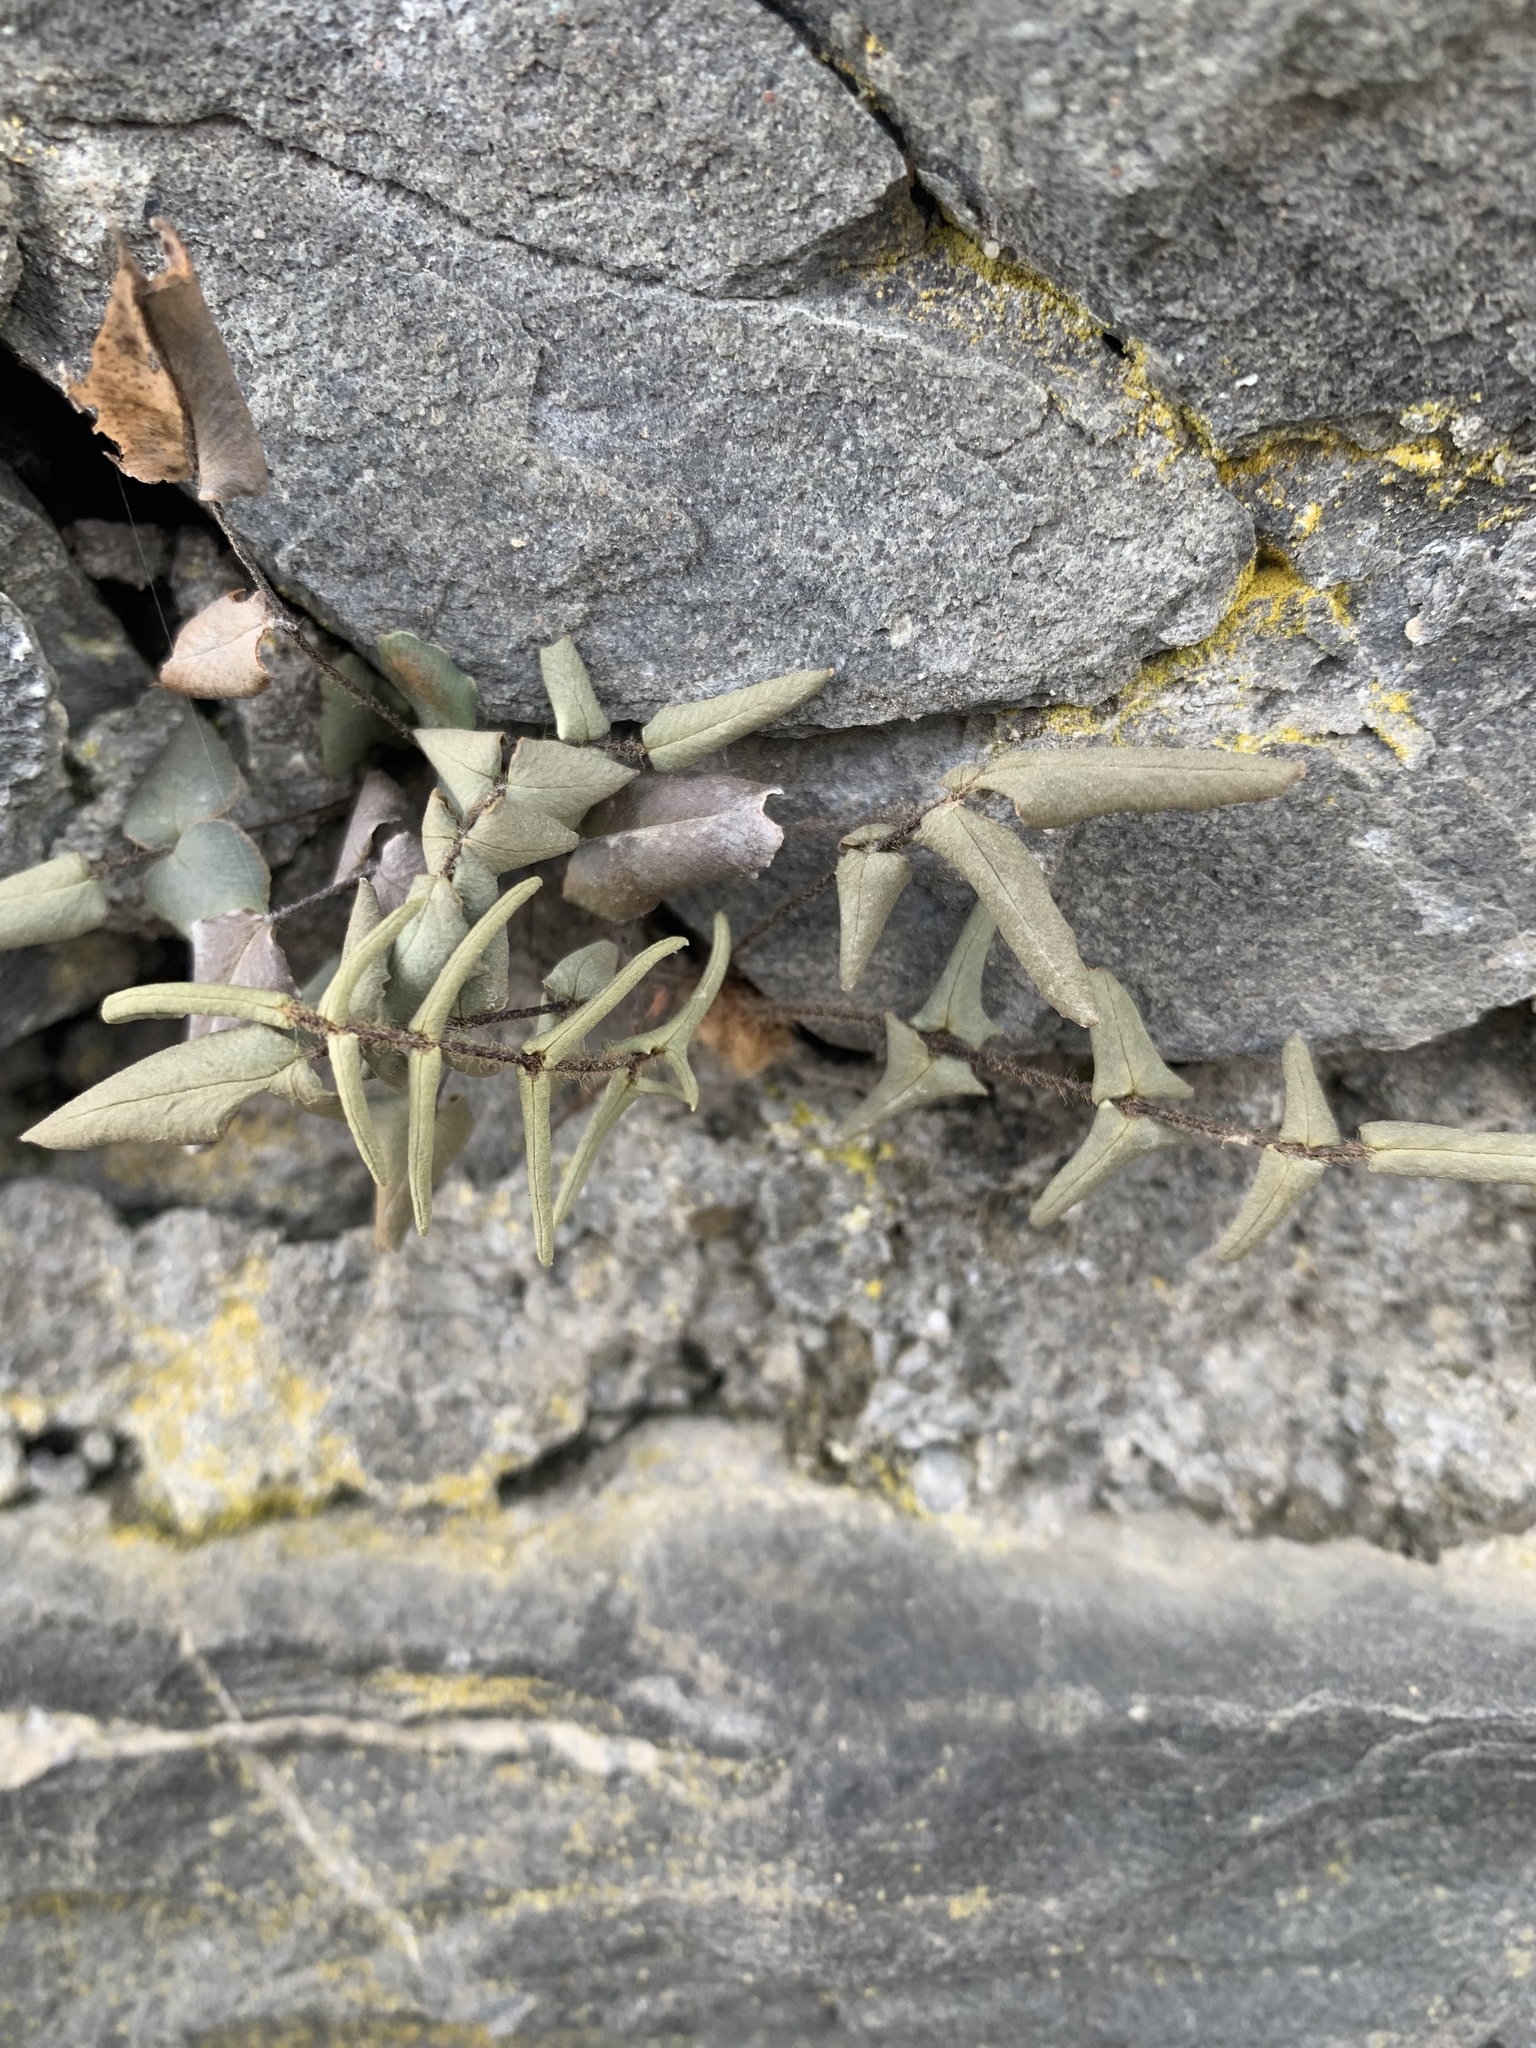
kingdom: Plantae
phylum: Tracheophyta
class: Polypodiopsida
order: Polypodiales
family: Pteridaceae
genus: Pellaea
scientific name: Pellaea atropurpurea
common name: Hairy cliffbrake
